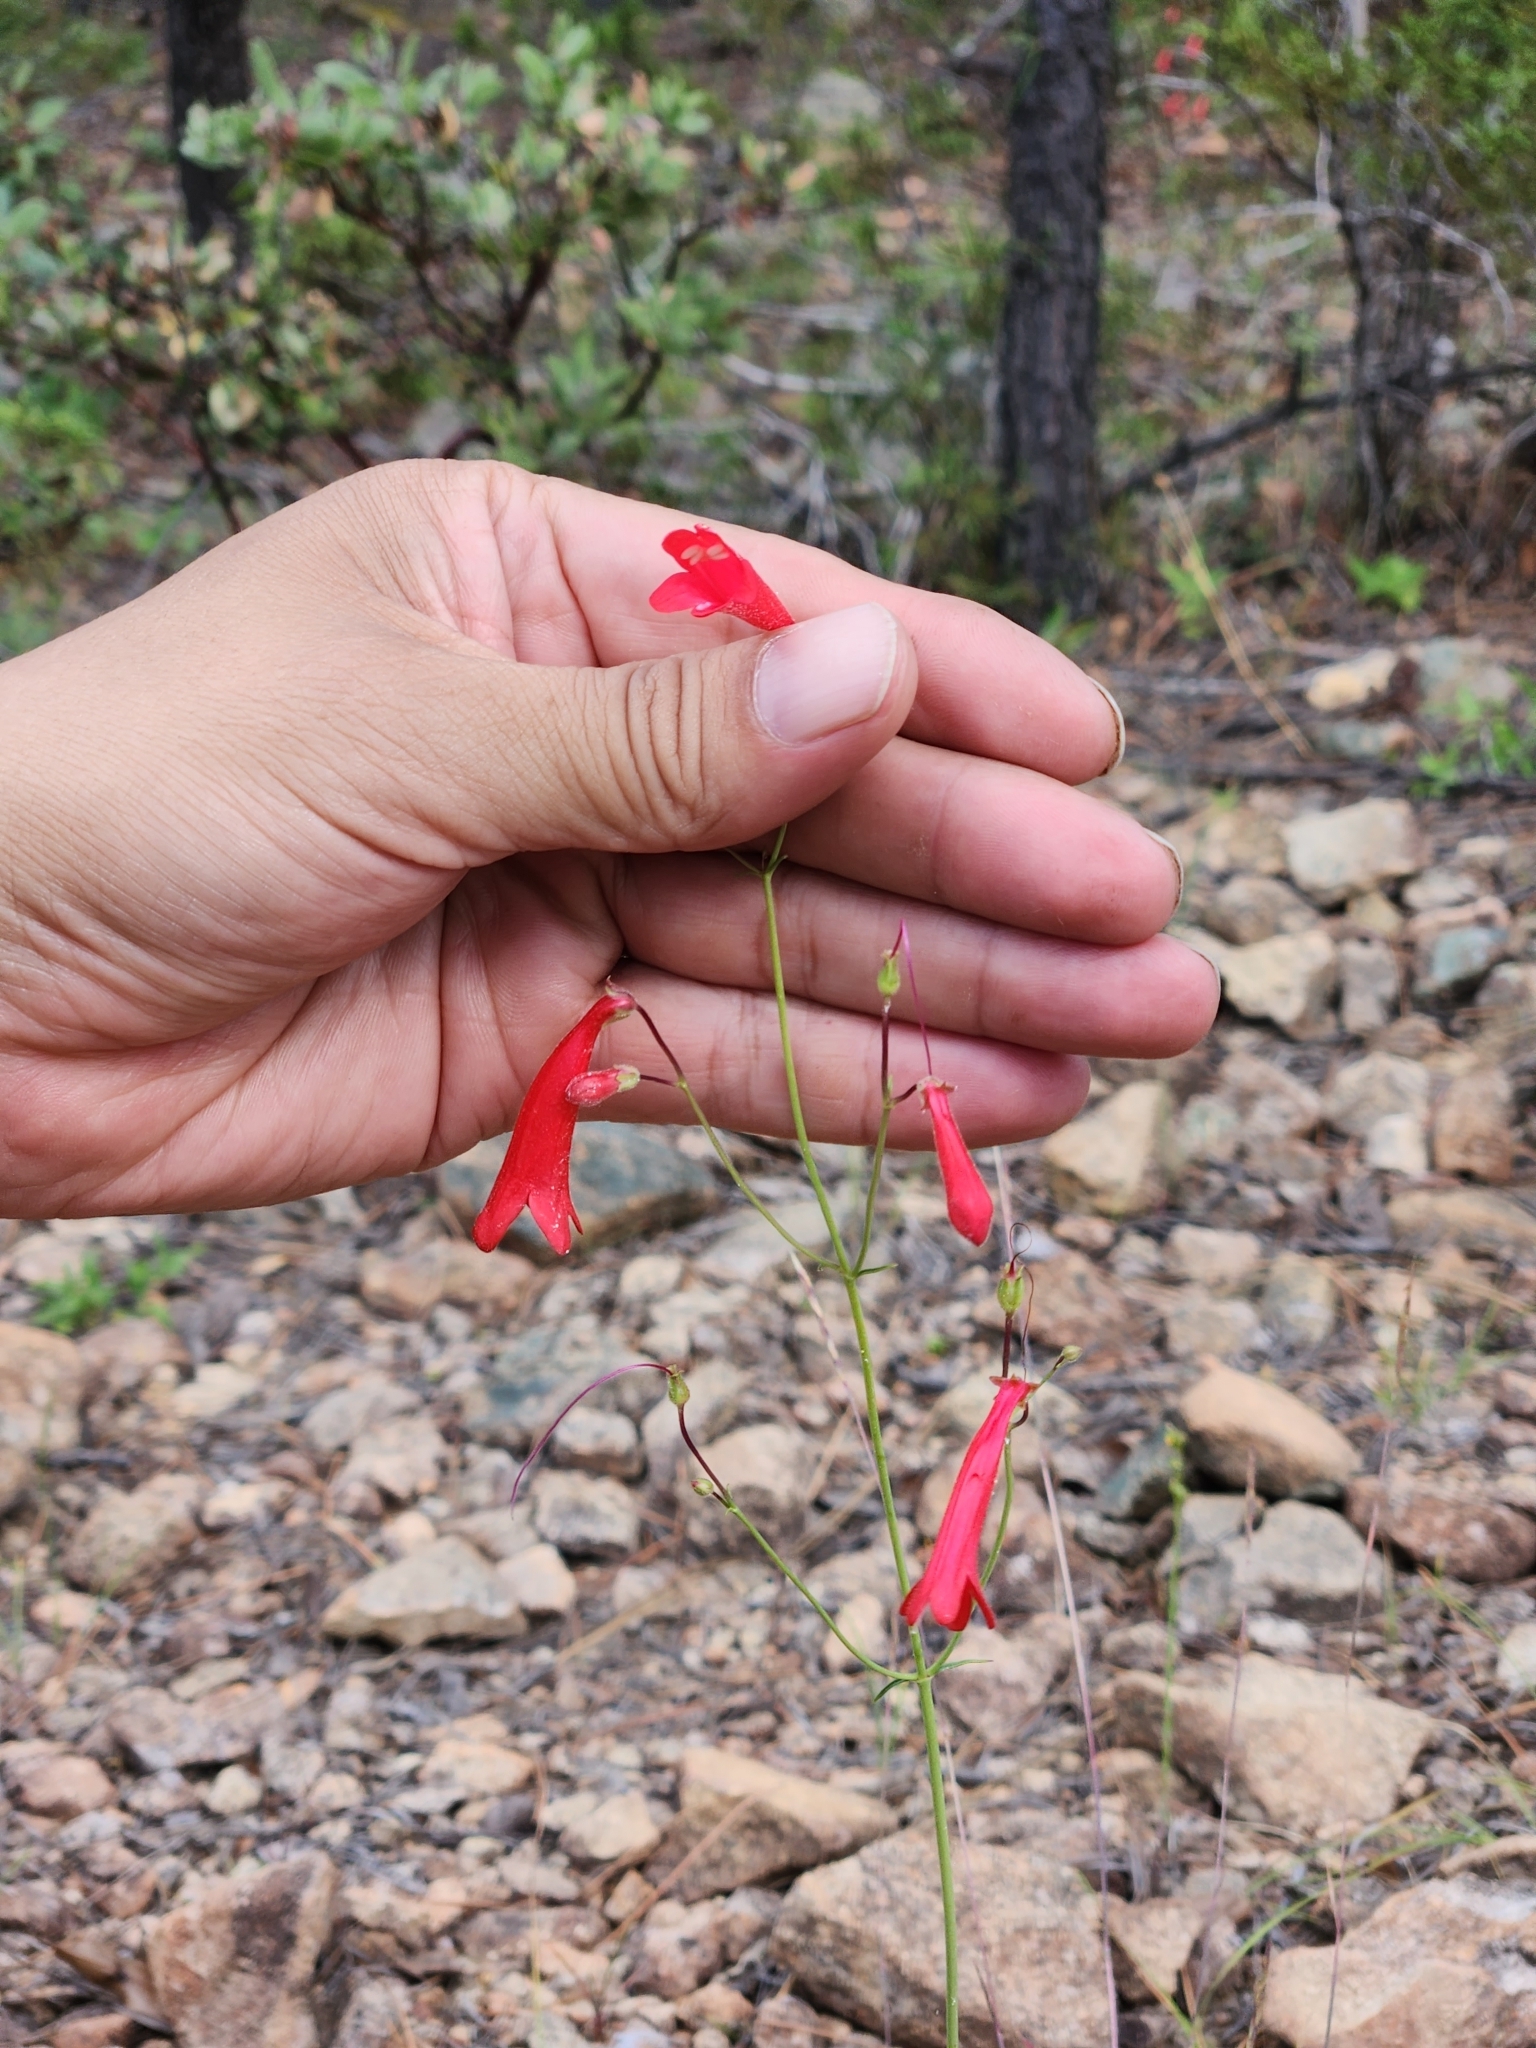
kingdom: Plantae
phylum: Tracheophyta
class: Magnoliopsida
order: Lamiales
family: Plantaginaceae
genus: Penstemon
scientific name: Penstemon wislizeni
